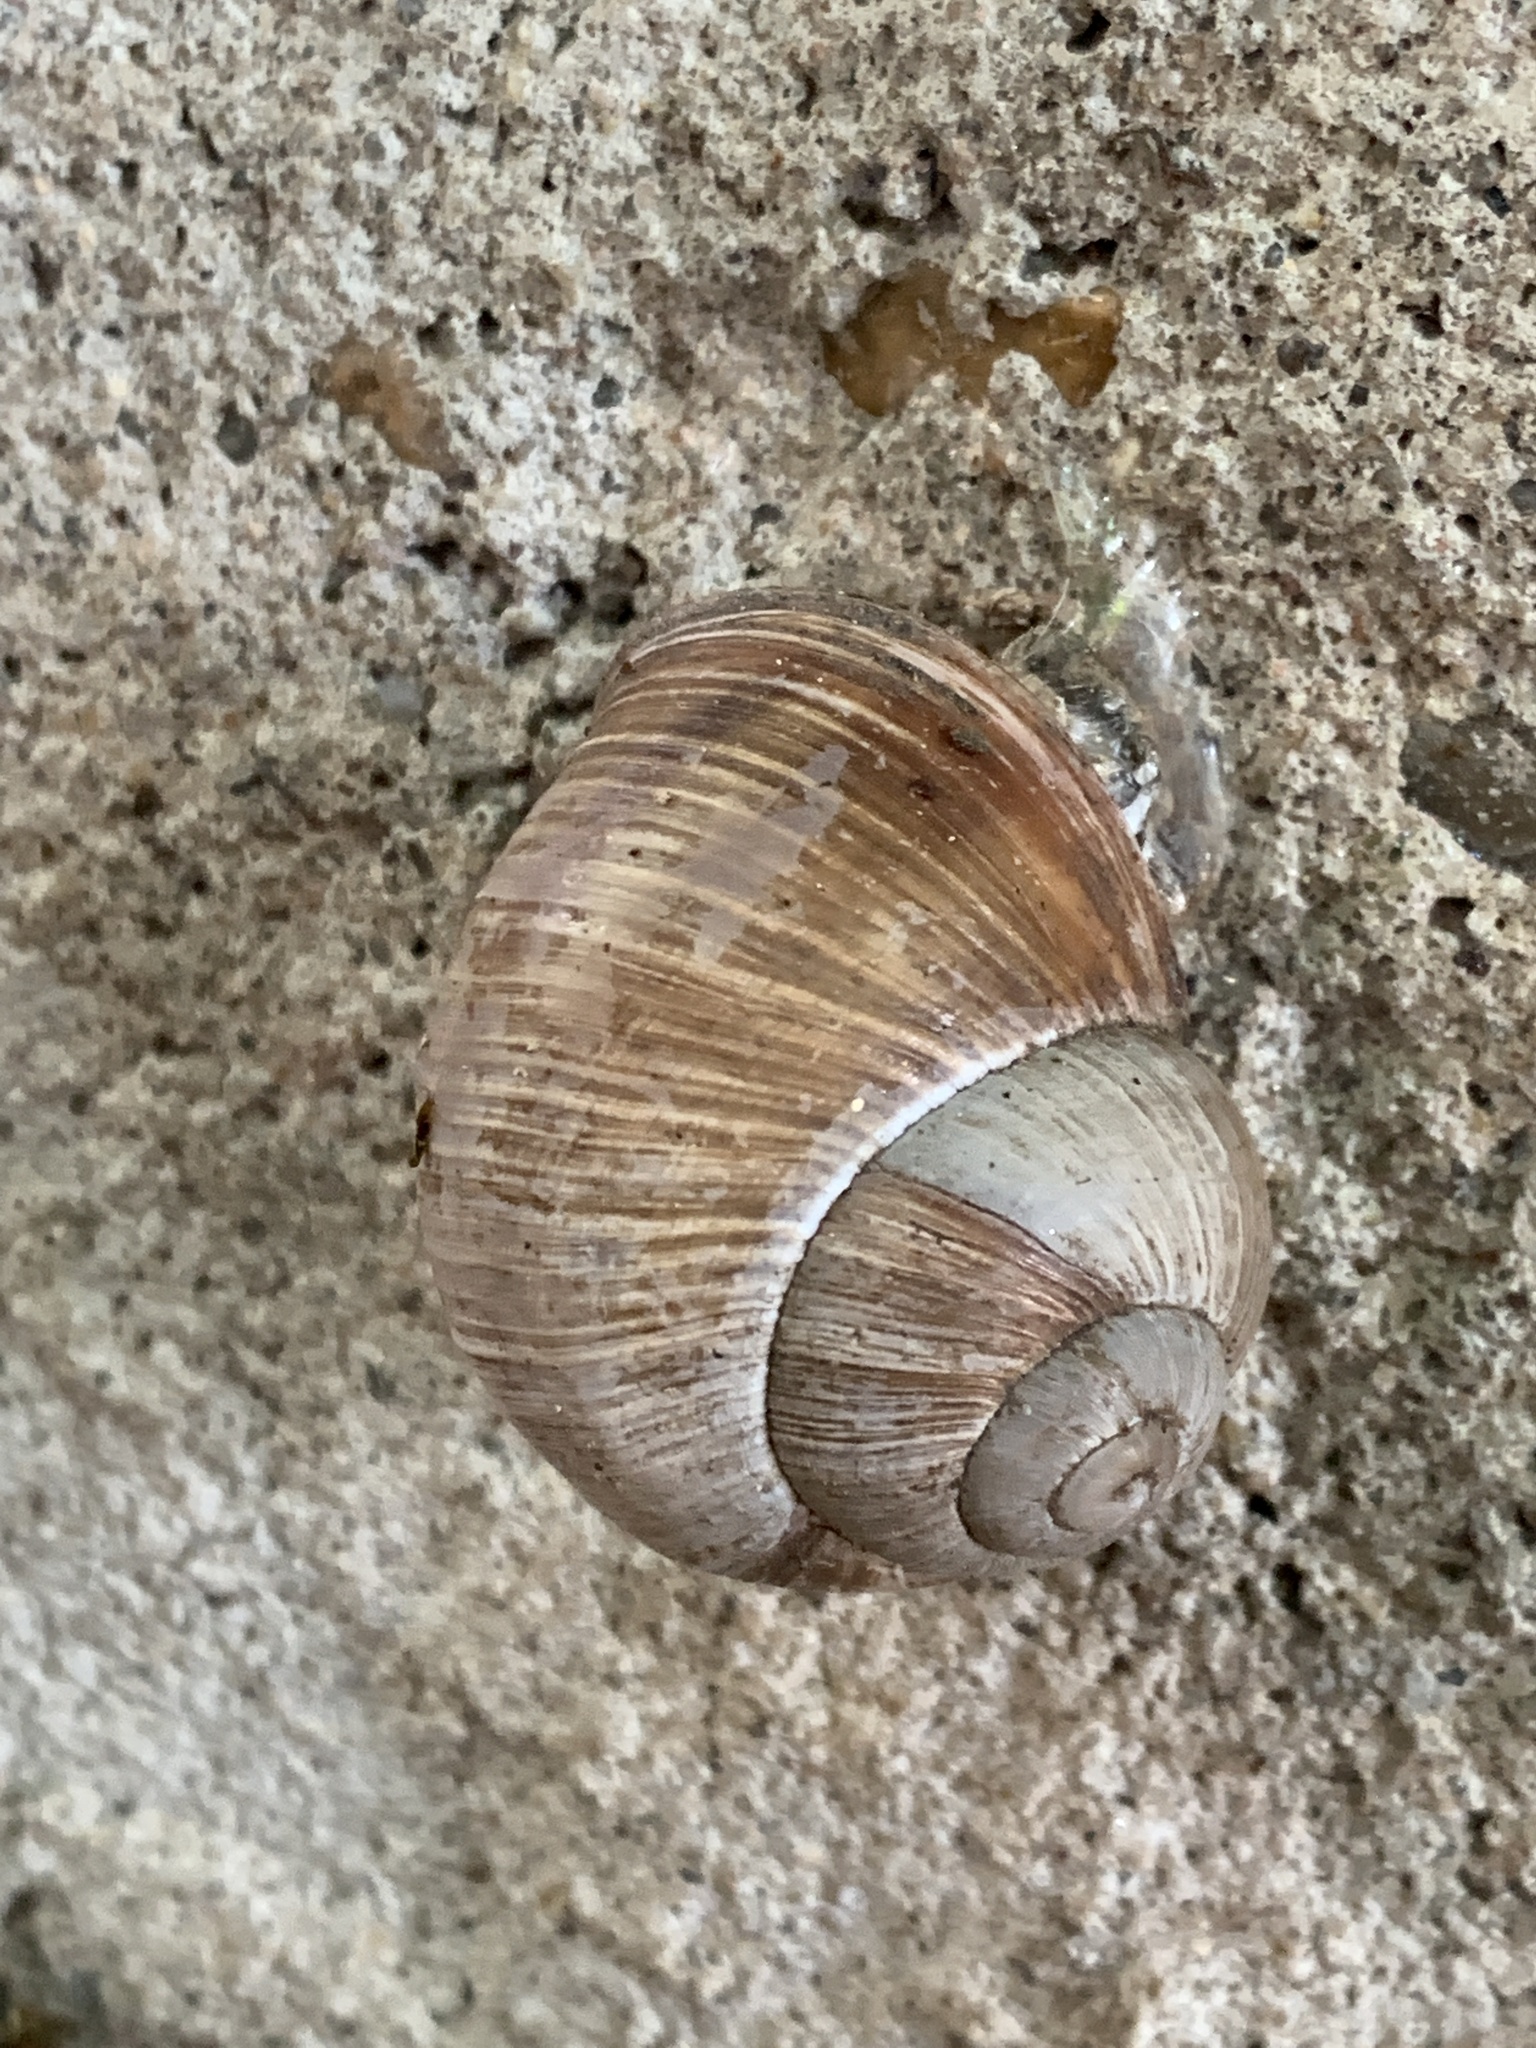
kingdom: Animalia
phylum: Mollusca
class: Gastropoda
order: Stylommatophora
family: Helicidae
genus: Helix
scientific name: Helix pomatia
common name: Roman snail
